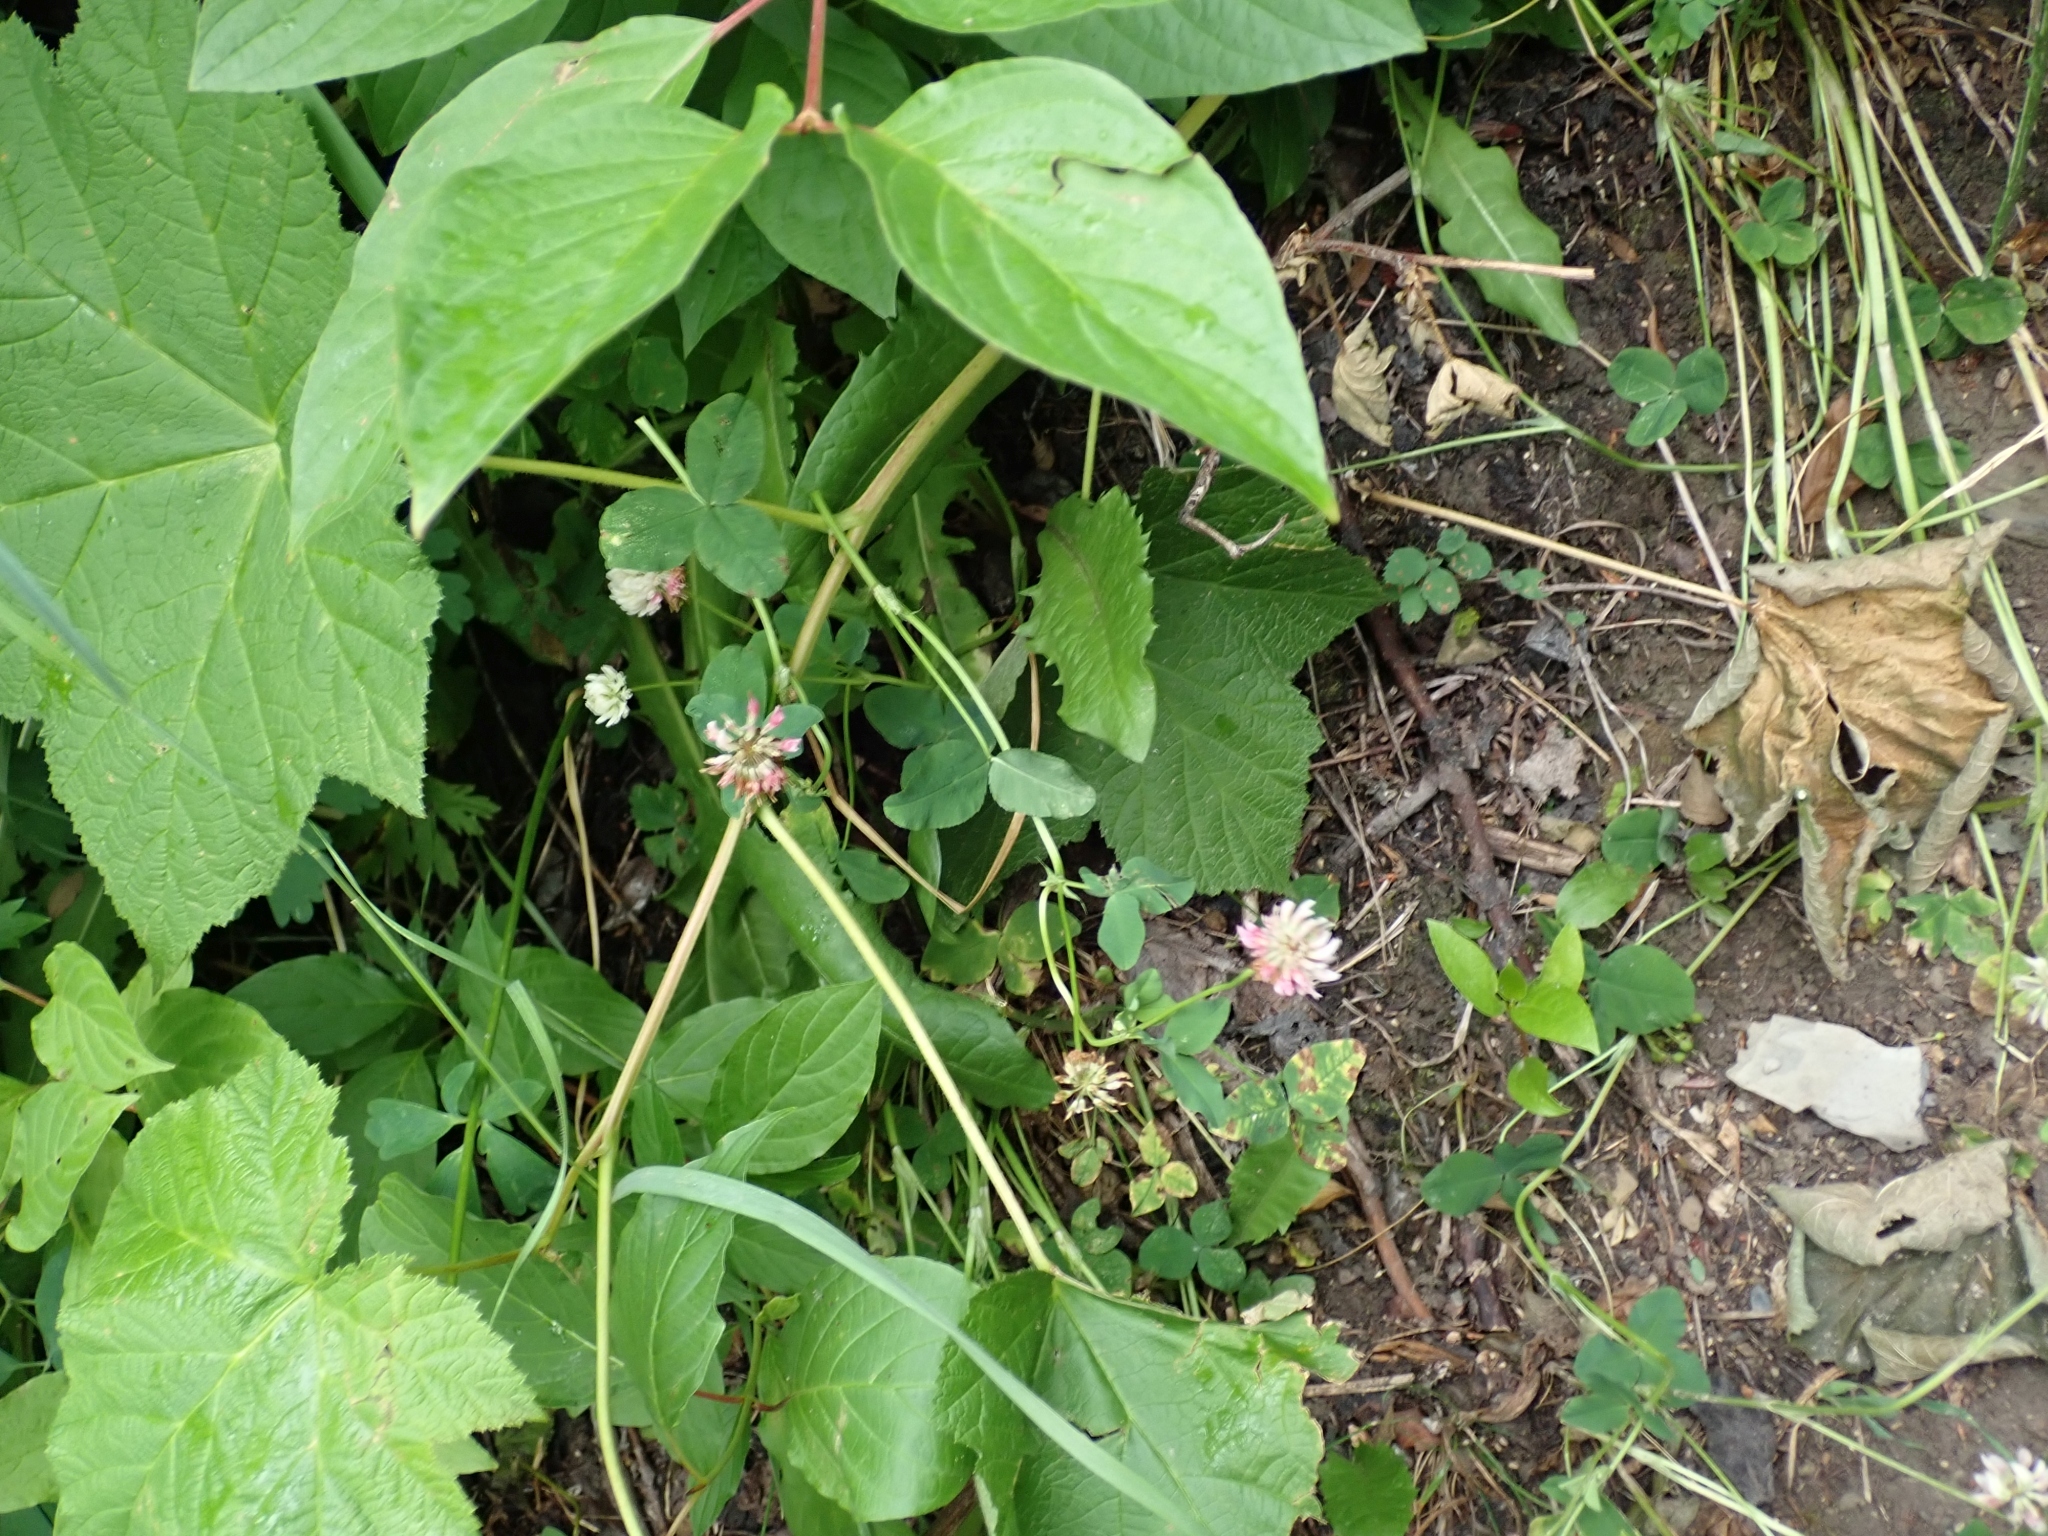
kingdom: Plantae
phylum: Tracheophyta
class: Magnoliopsida
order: Fabales
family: Fabaceae
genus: Trifolium
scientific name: Trifolium hybridum
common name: Alsike clover
